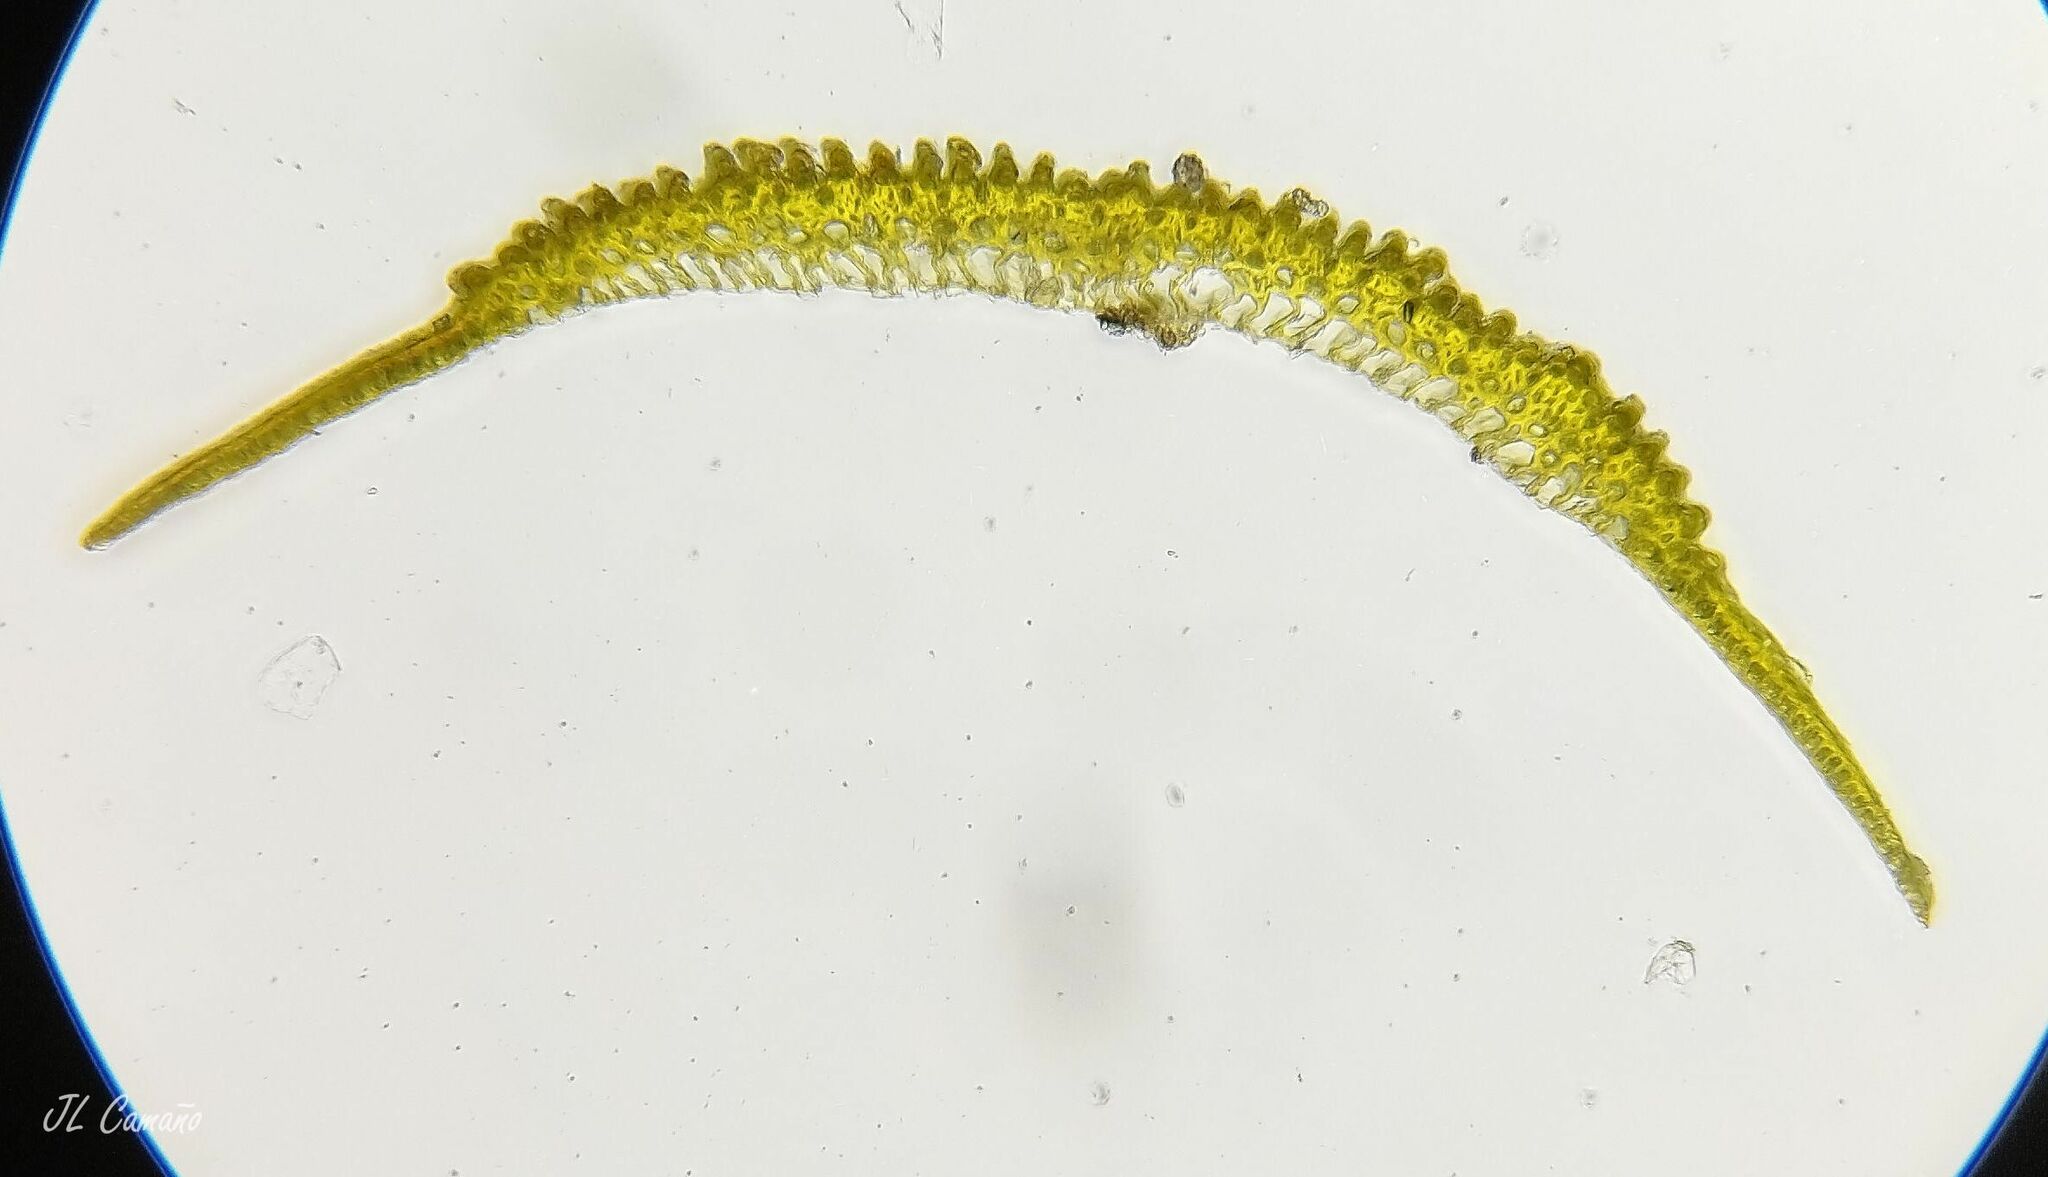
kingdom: Plantae
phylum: Bryophyta
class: Bryopsida
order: Dicranales
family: Leucobryaceae
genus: Campylopus
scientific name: Campylopus pilifer
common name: Campylopus moss
